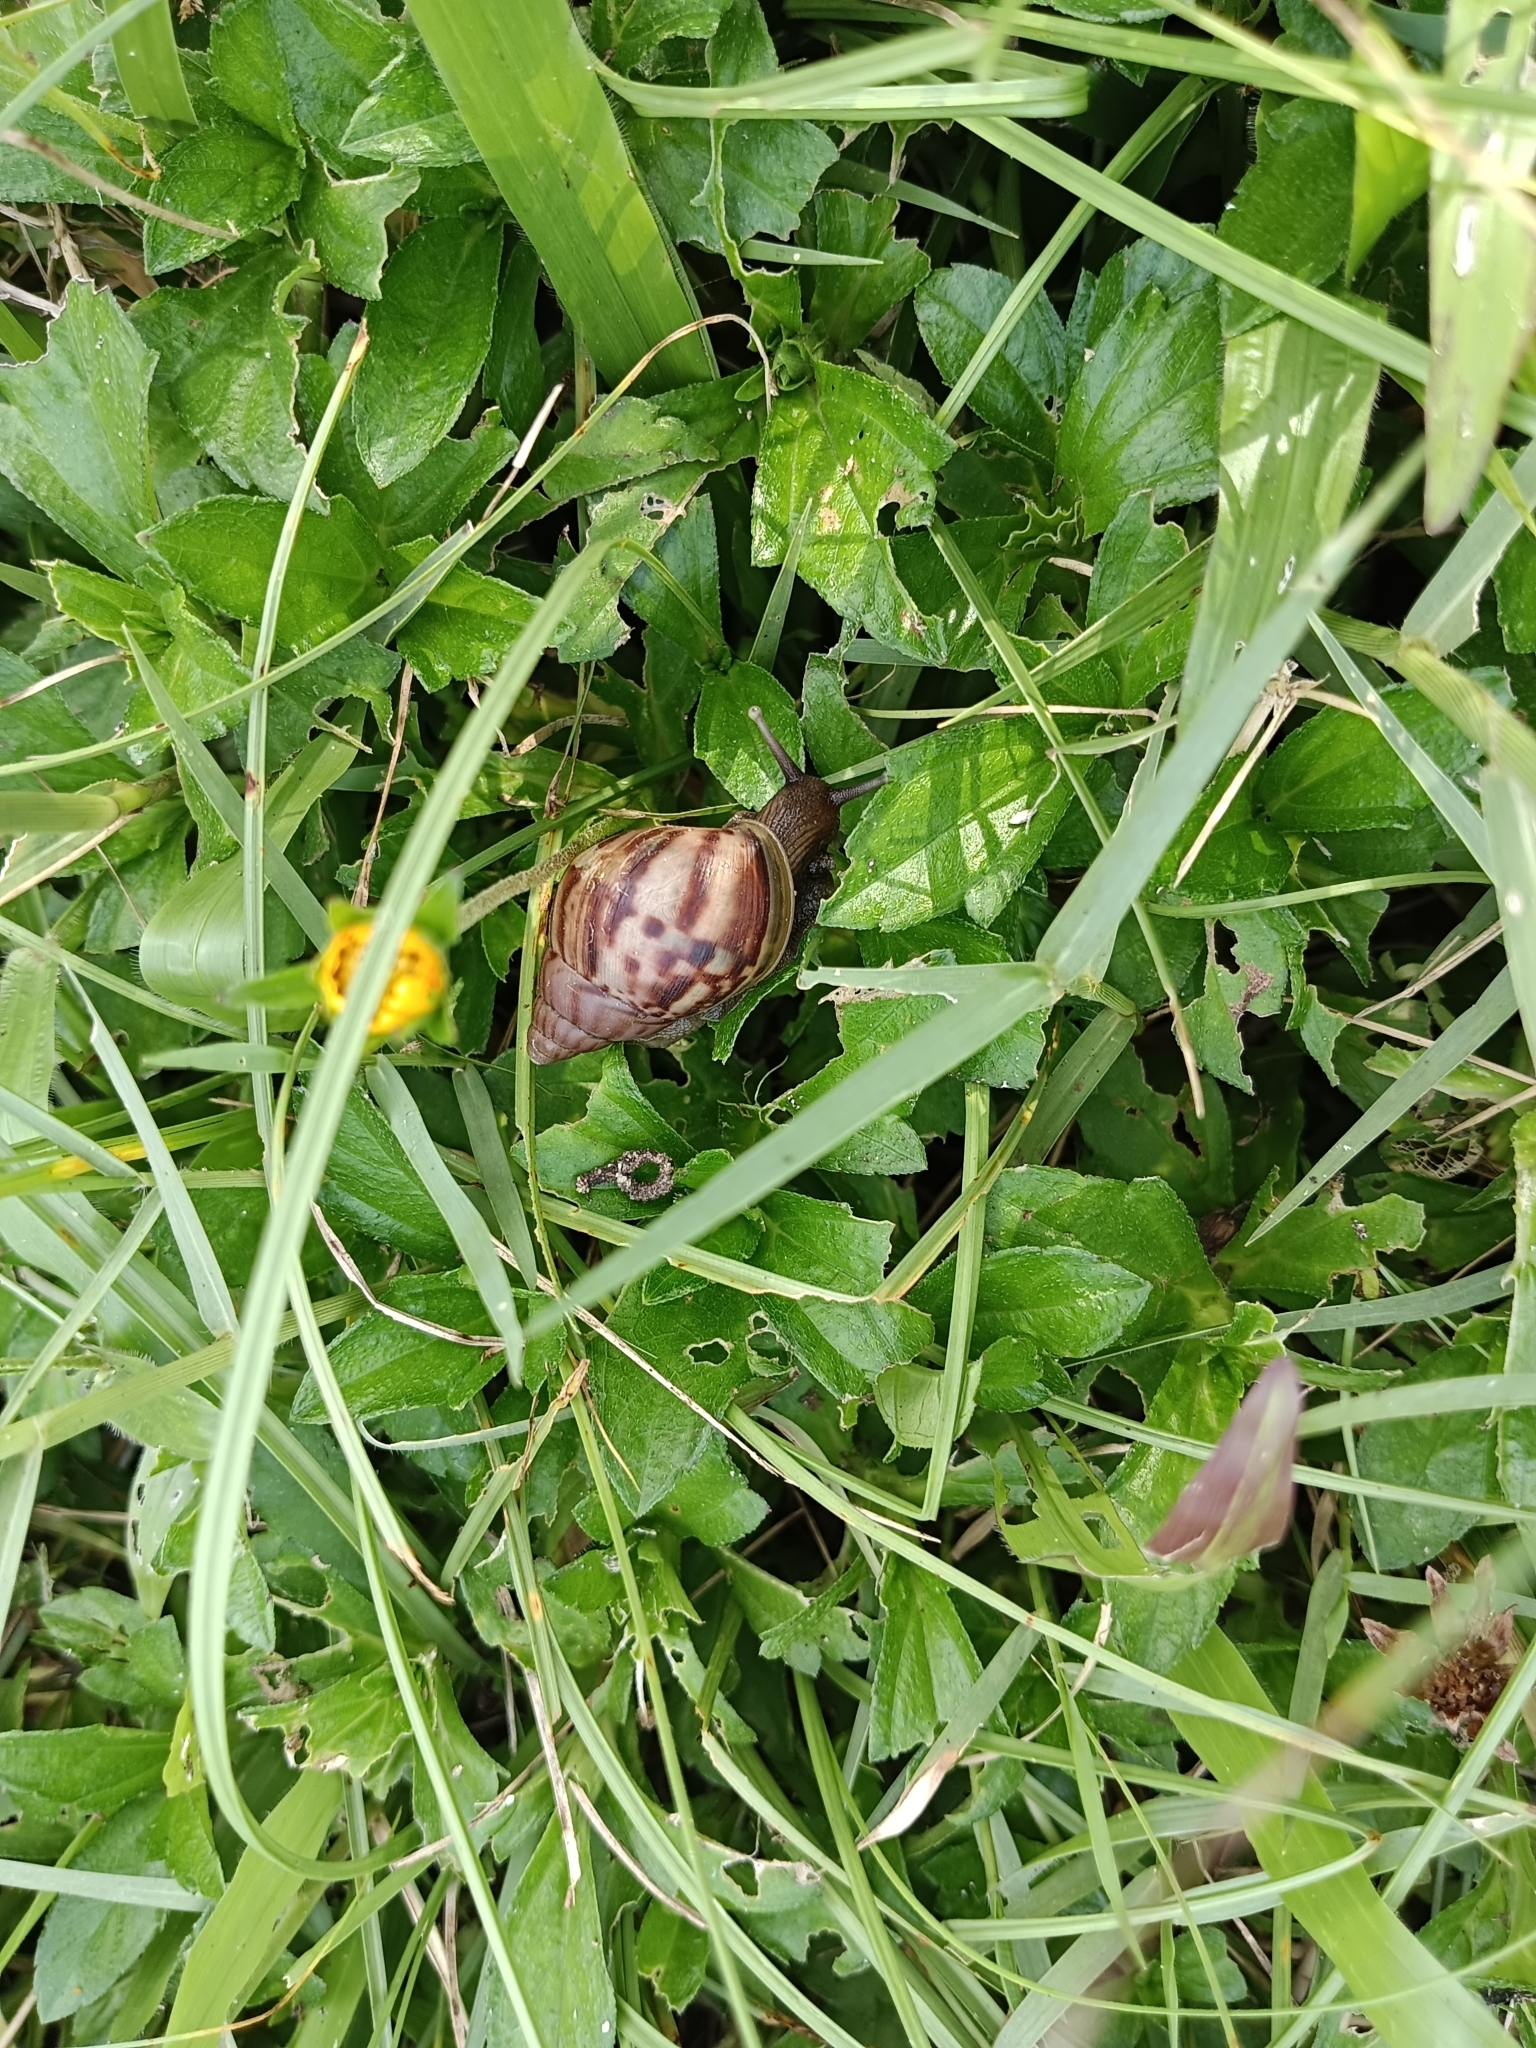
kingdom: Animalia
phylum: Mollusca
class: Gastropoda
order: Stylommatophora
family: Achatinidae
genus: Lissachatina
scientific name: Lissachatina fulica
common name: Giant african snail
